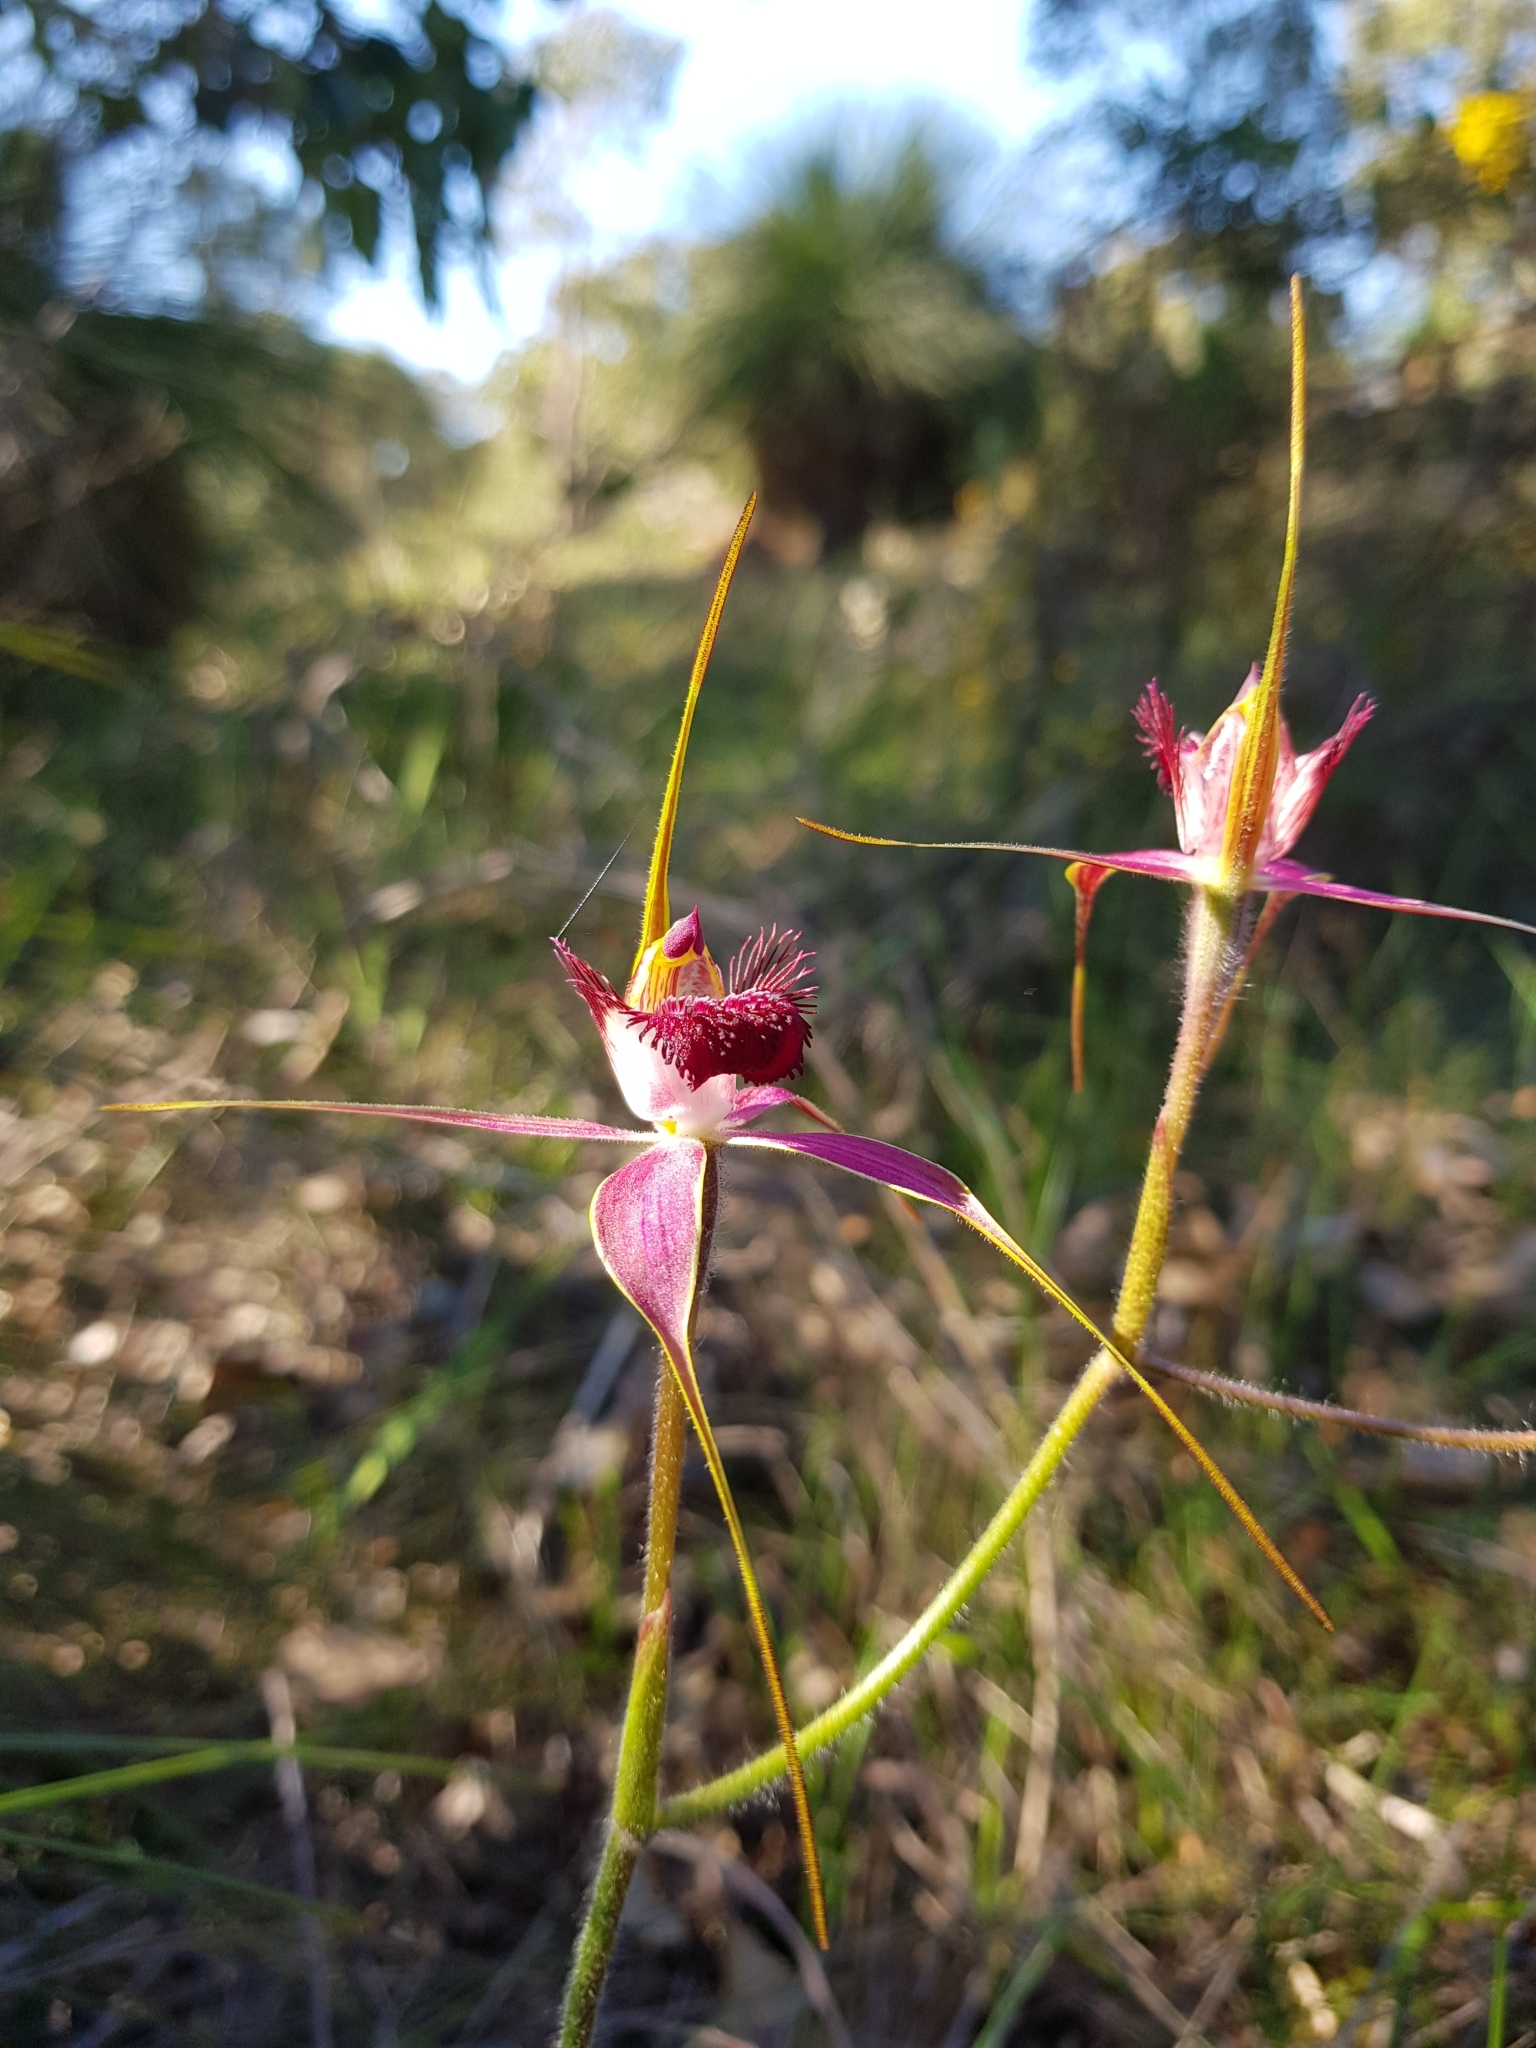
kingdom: Plantae
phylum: Tracheophyta
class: Liliopsida
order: Asparagales
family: Orchidaceae
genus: Caladenia
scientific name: Caladenia arenicola
